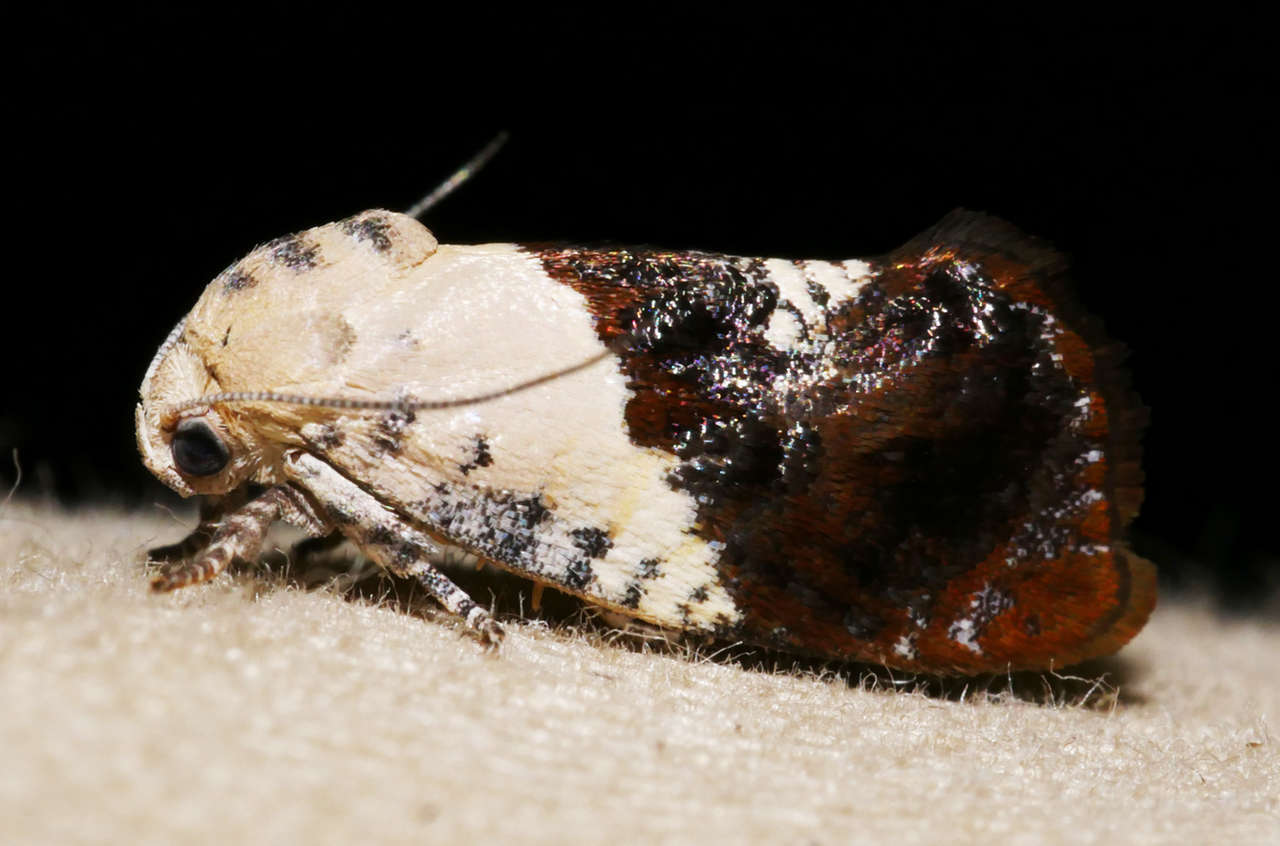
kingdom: Animalia
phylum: Arthropoda
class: Insecta
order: Lepidoptera
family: Depressariidae
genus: Hypertropha
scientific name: Hypertropha chlaenota
